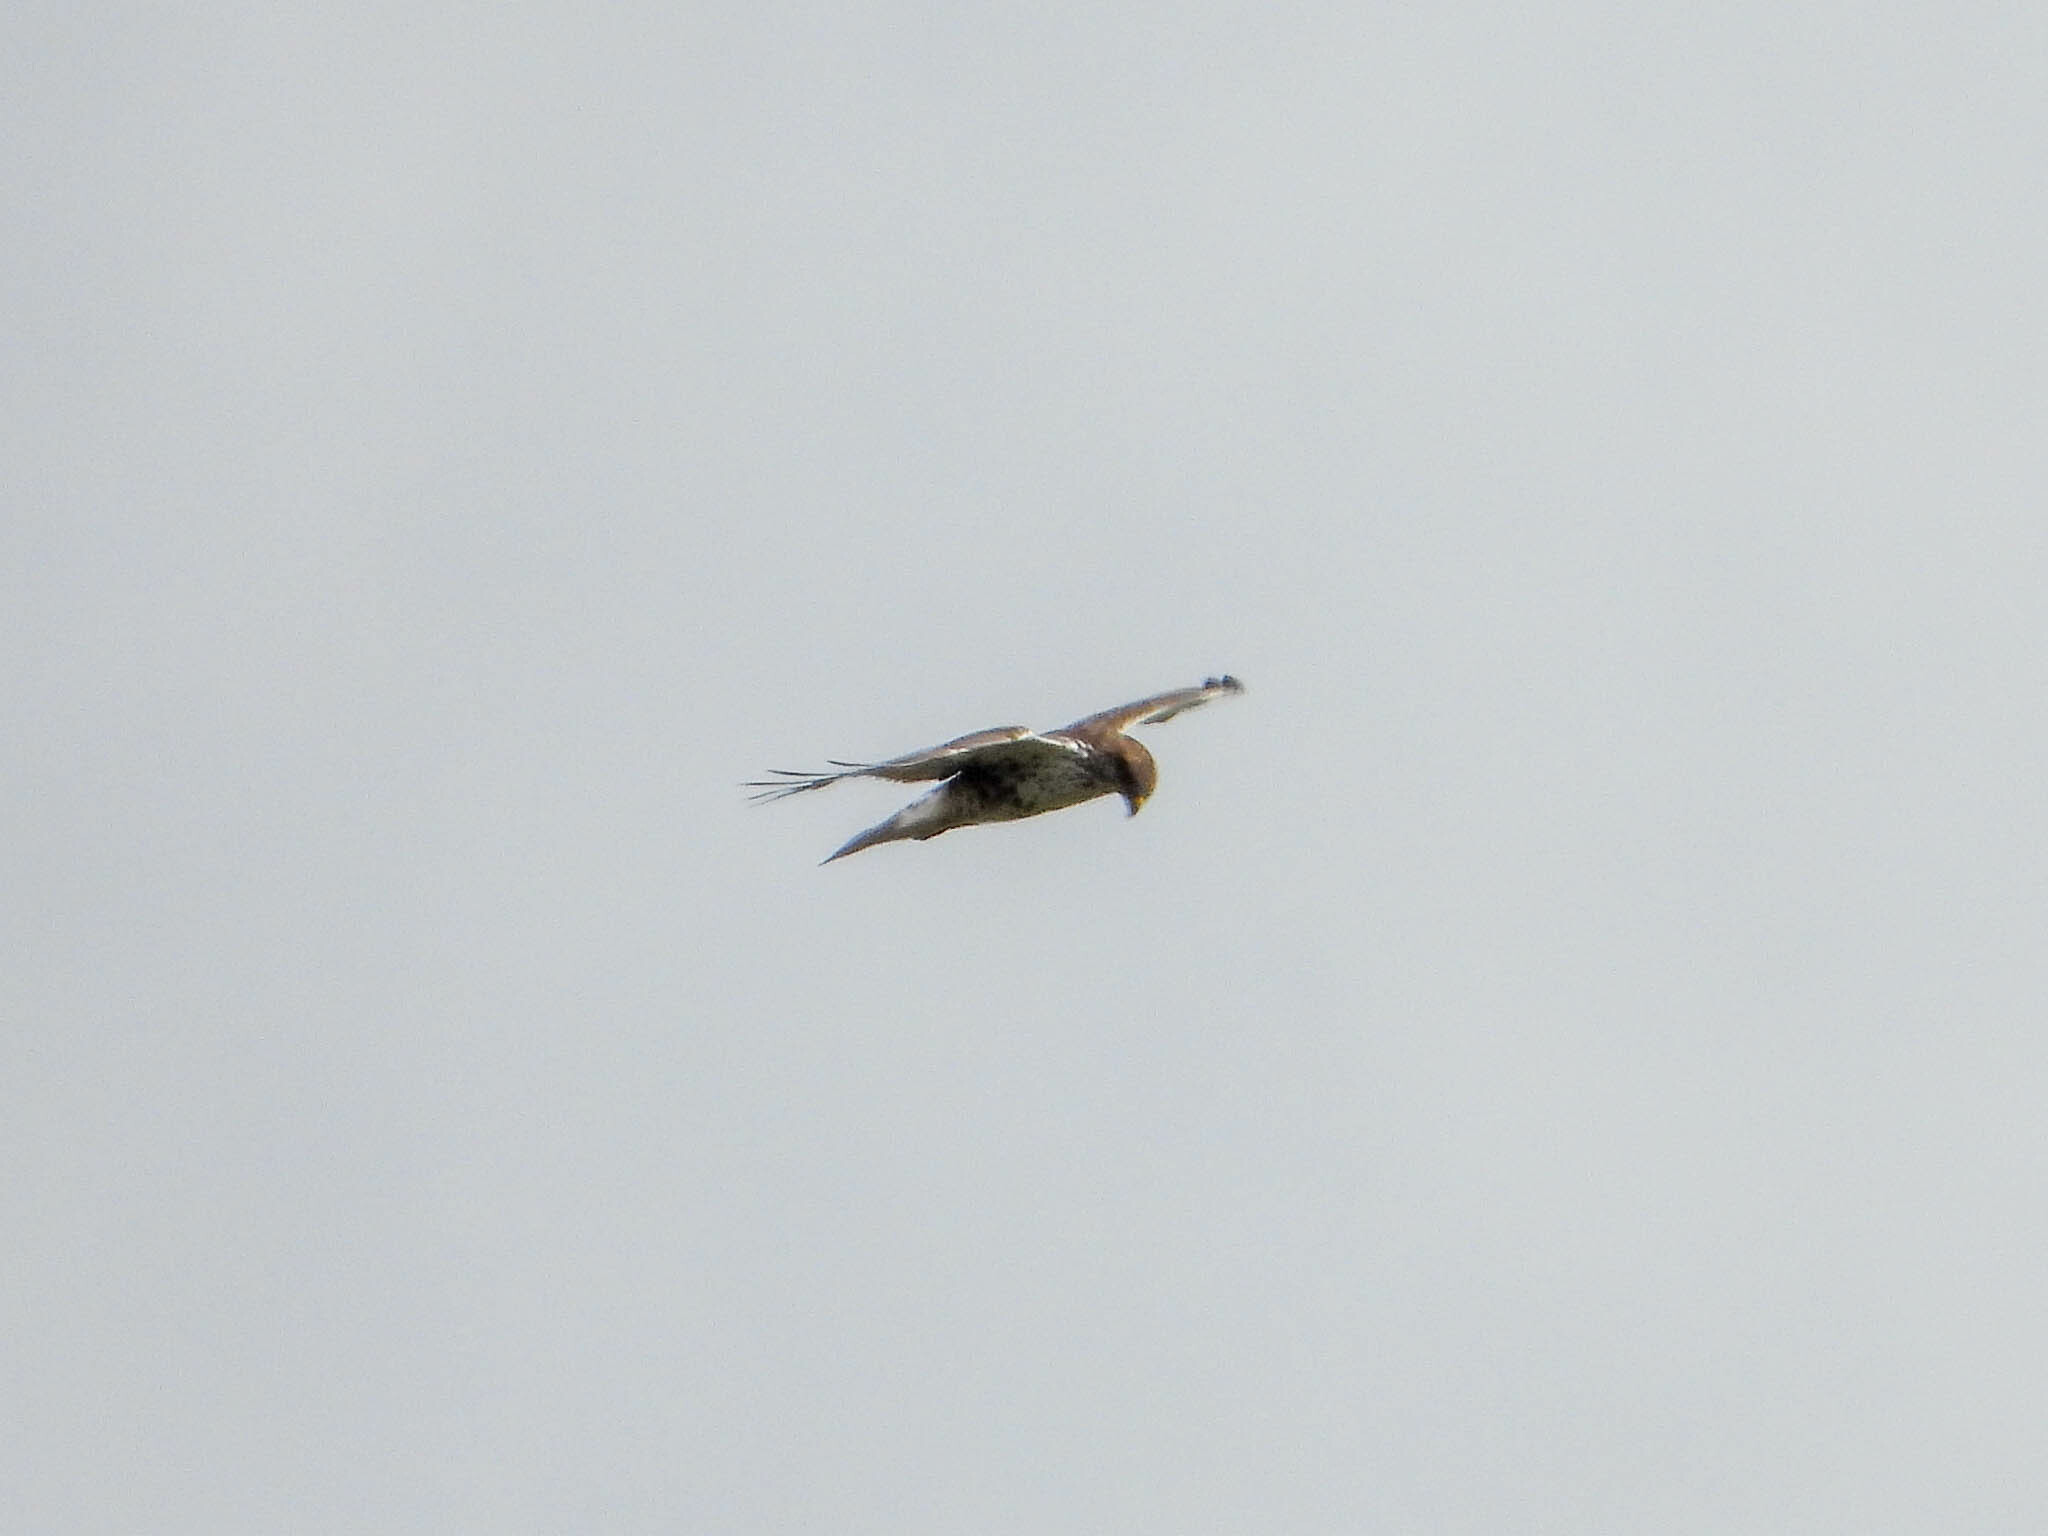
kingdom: Animalia
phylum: Chordata
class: Aves
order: Accipitriformes
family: Accipitridae
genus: Buteo
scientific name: Buteo regalis
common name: Ferruginous hawk
